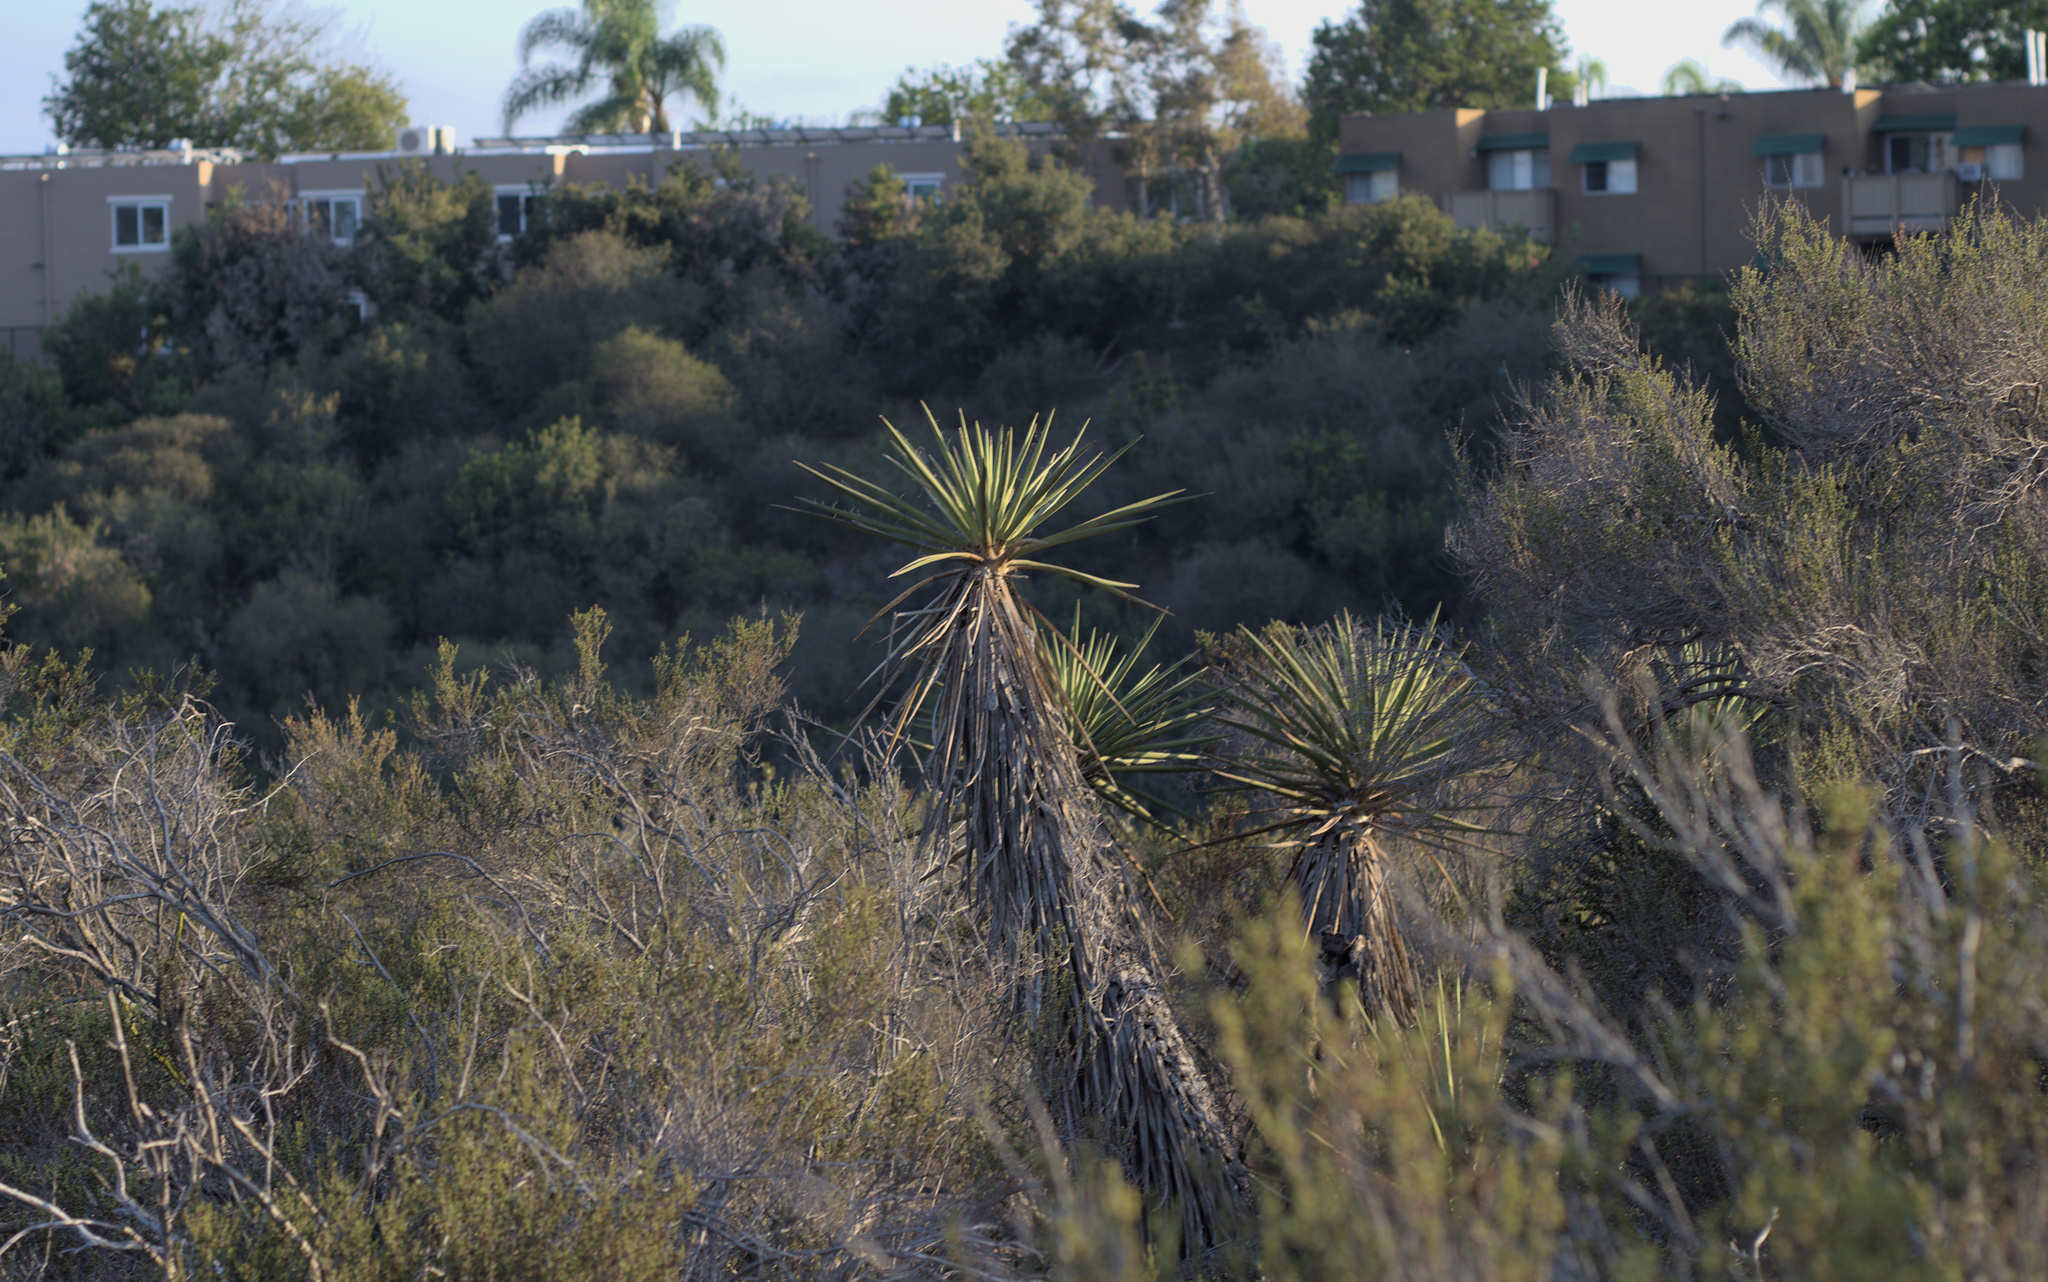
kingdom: Plantae
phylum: Tracheophyta
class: Liliopsida
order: Asparagales
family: Asparagaceae
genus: Yucca
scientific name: Yucca schidigera
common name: Mojave yucca
